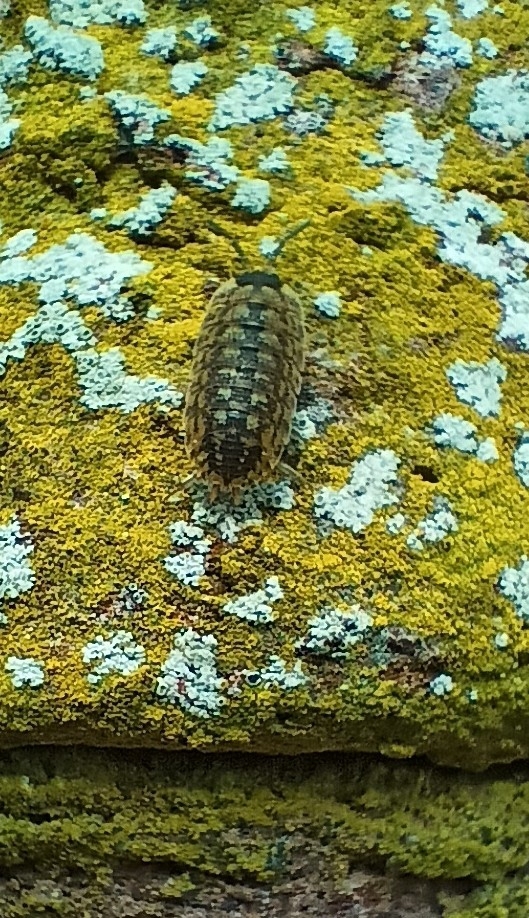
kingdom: Animalia
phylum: Arthropoda
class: Malacostraca
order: Isopoda
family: Porcellionidae
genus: Porcellio
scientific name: Porcellio spinicornis
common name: Painted woodlouse
